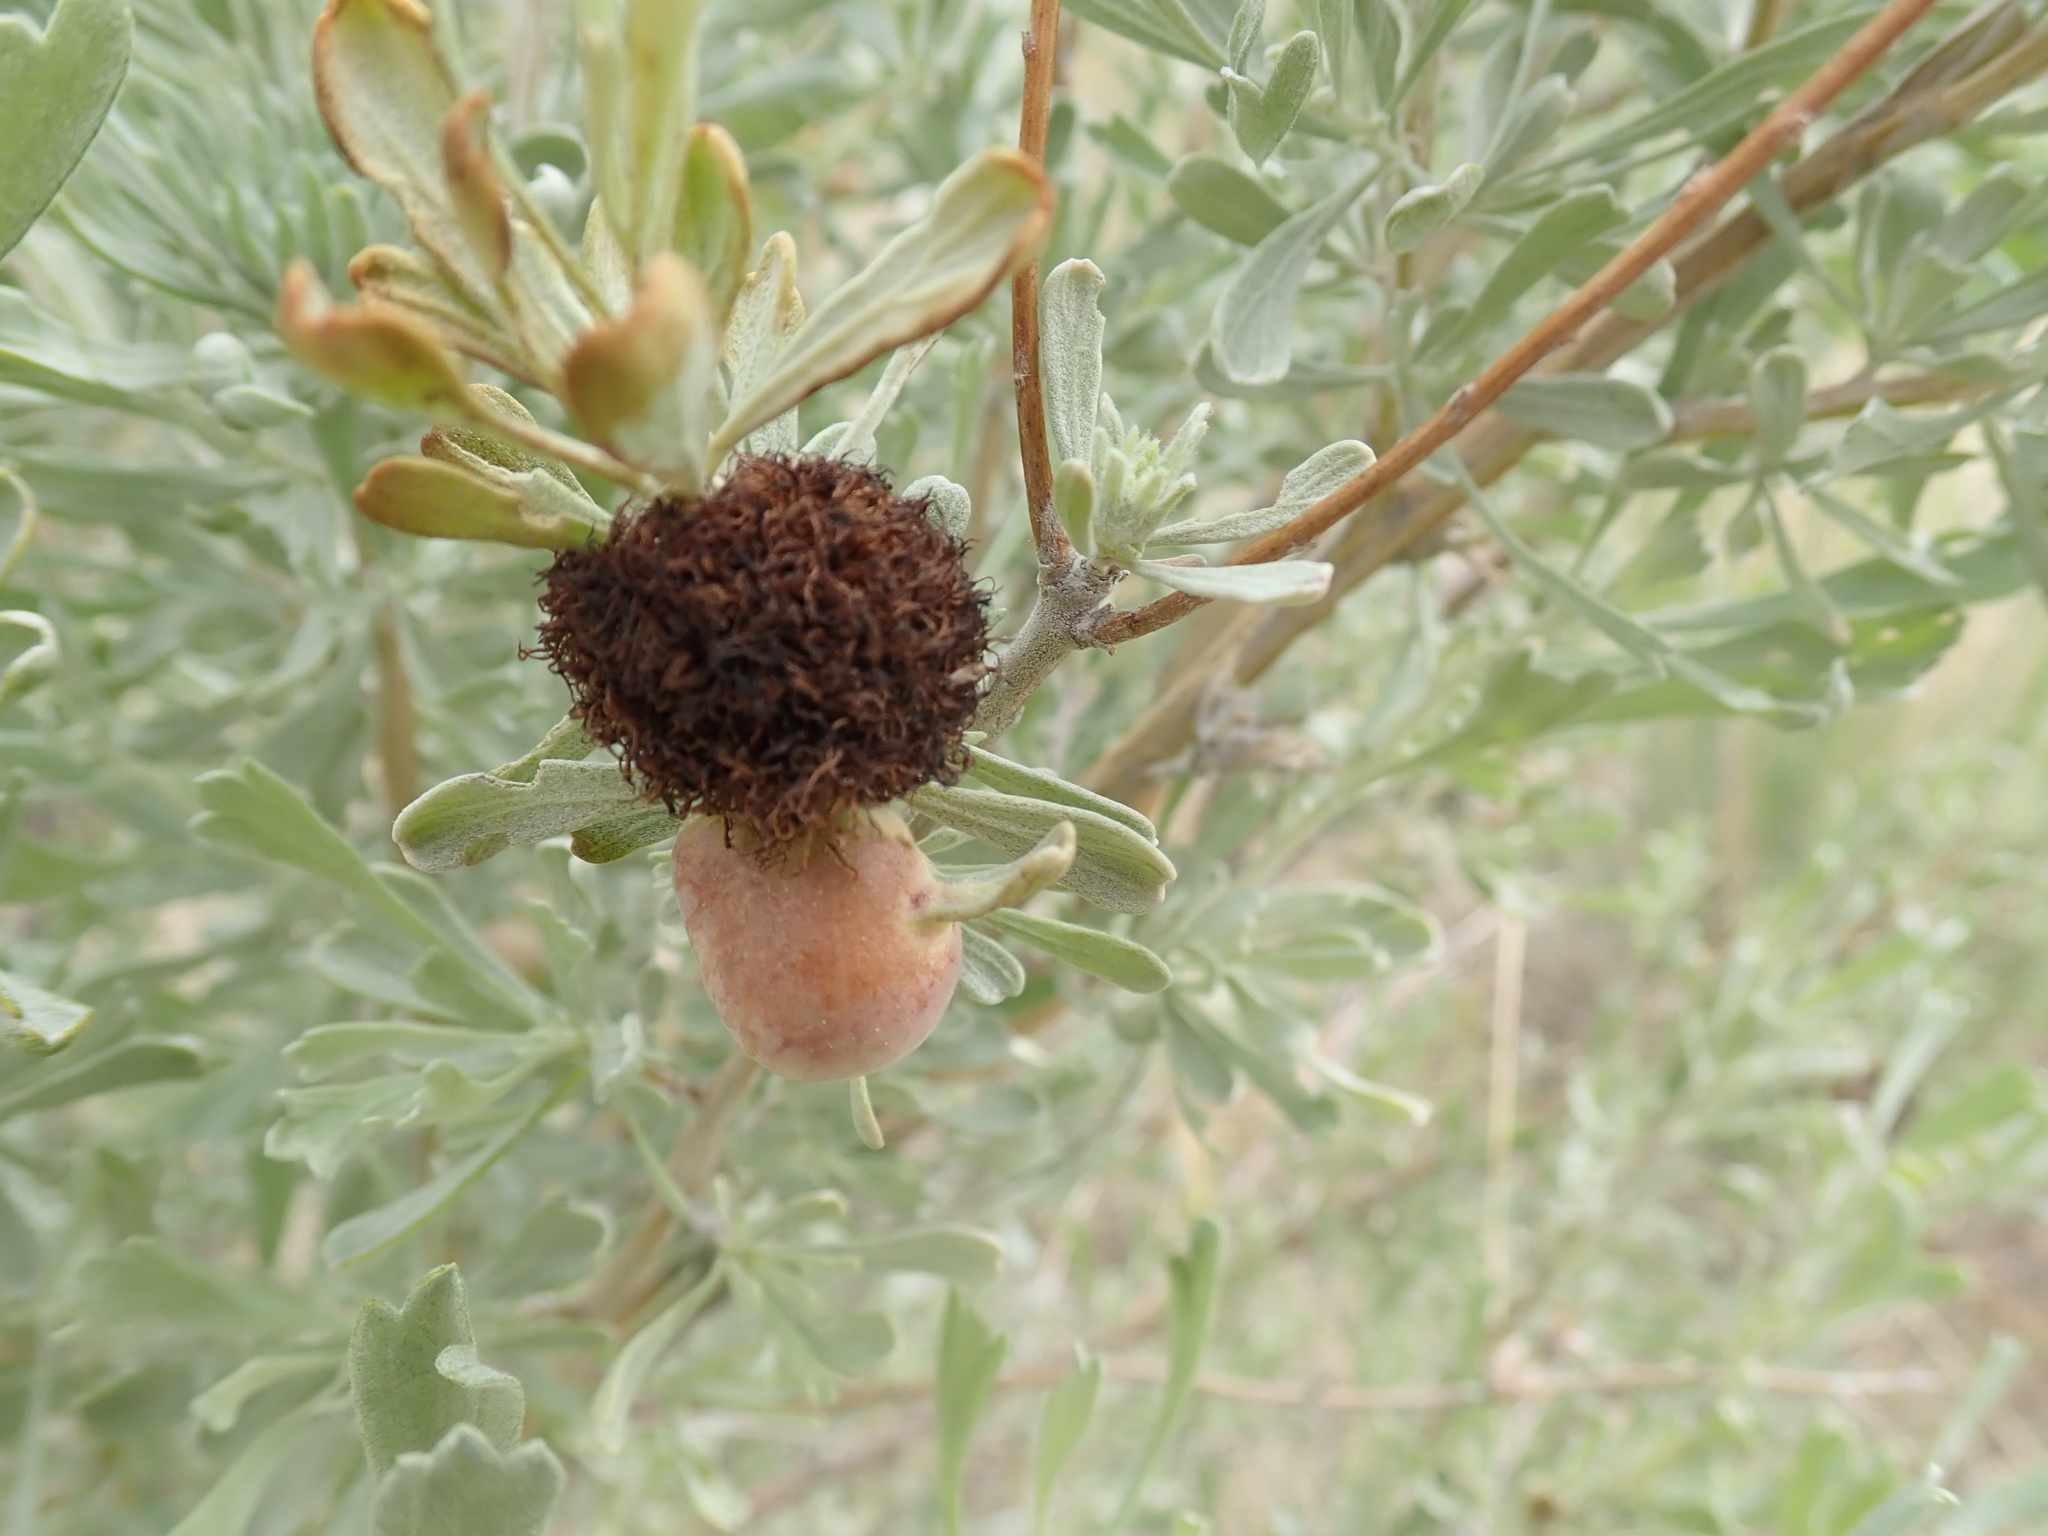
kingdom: Animalia
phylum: Arthropoda
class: Insecta
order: Diptera
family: Cecidomyiidae
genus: Rhopalomyia
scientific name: Rhopalomyia medusa
